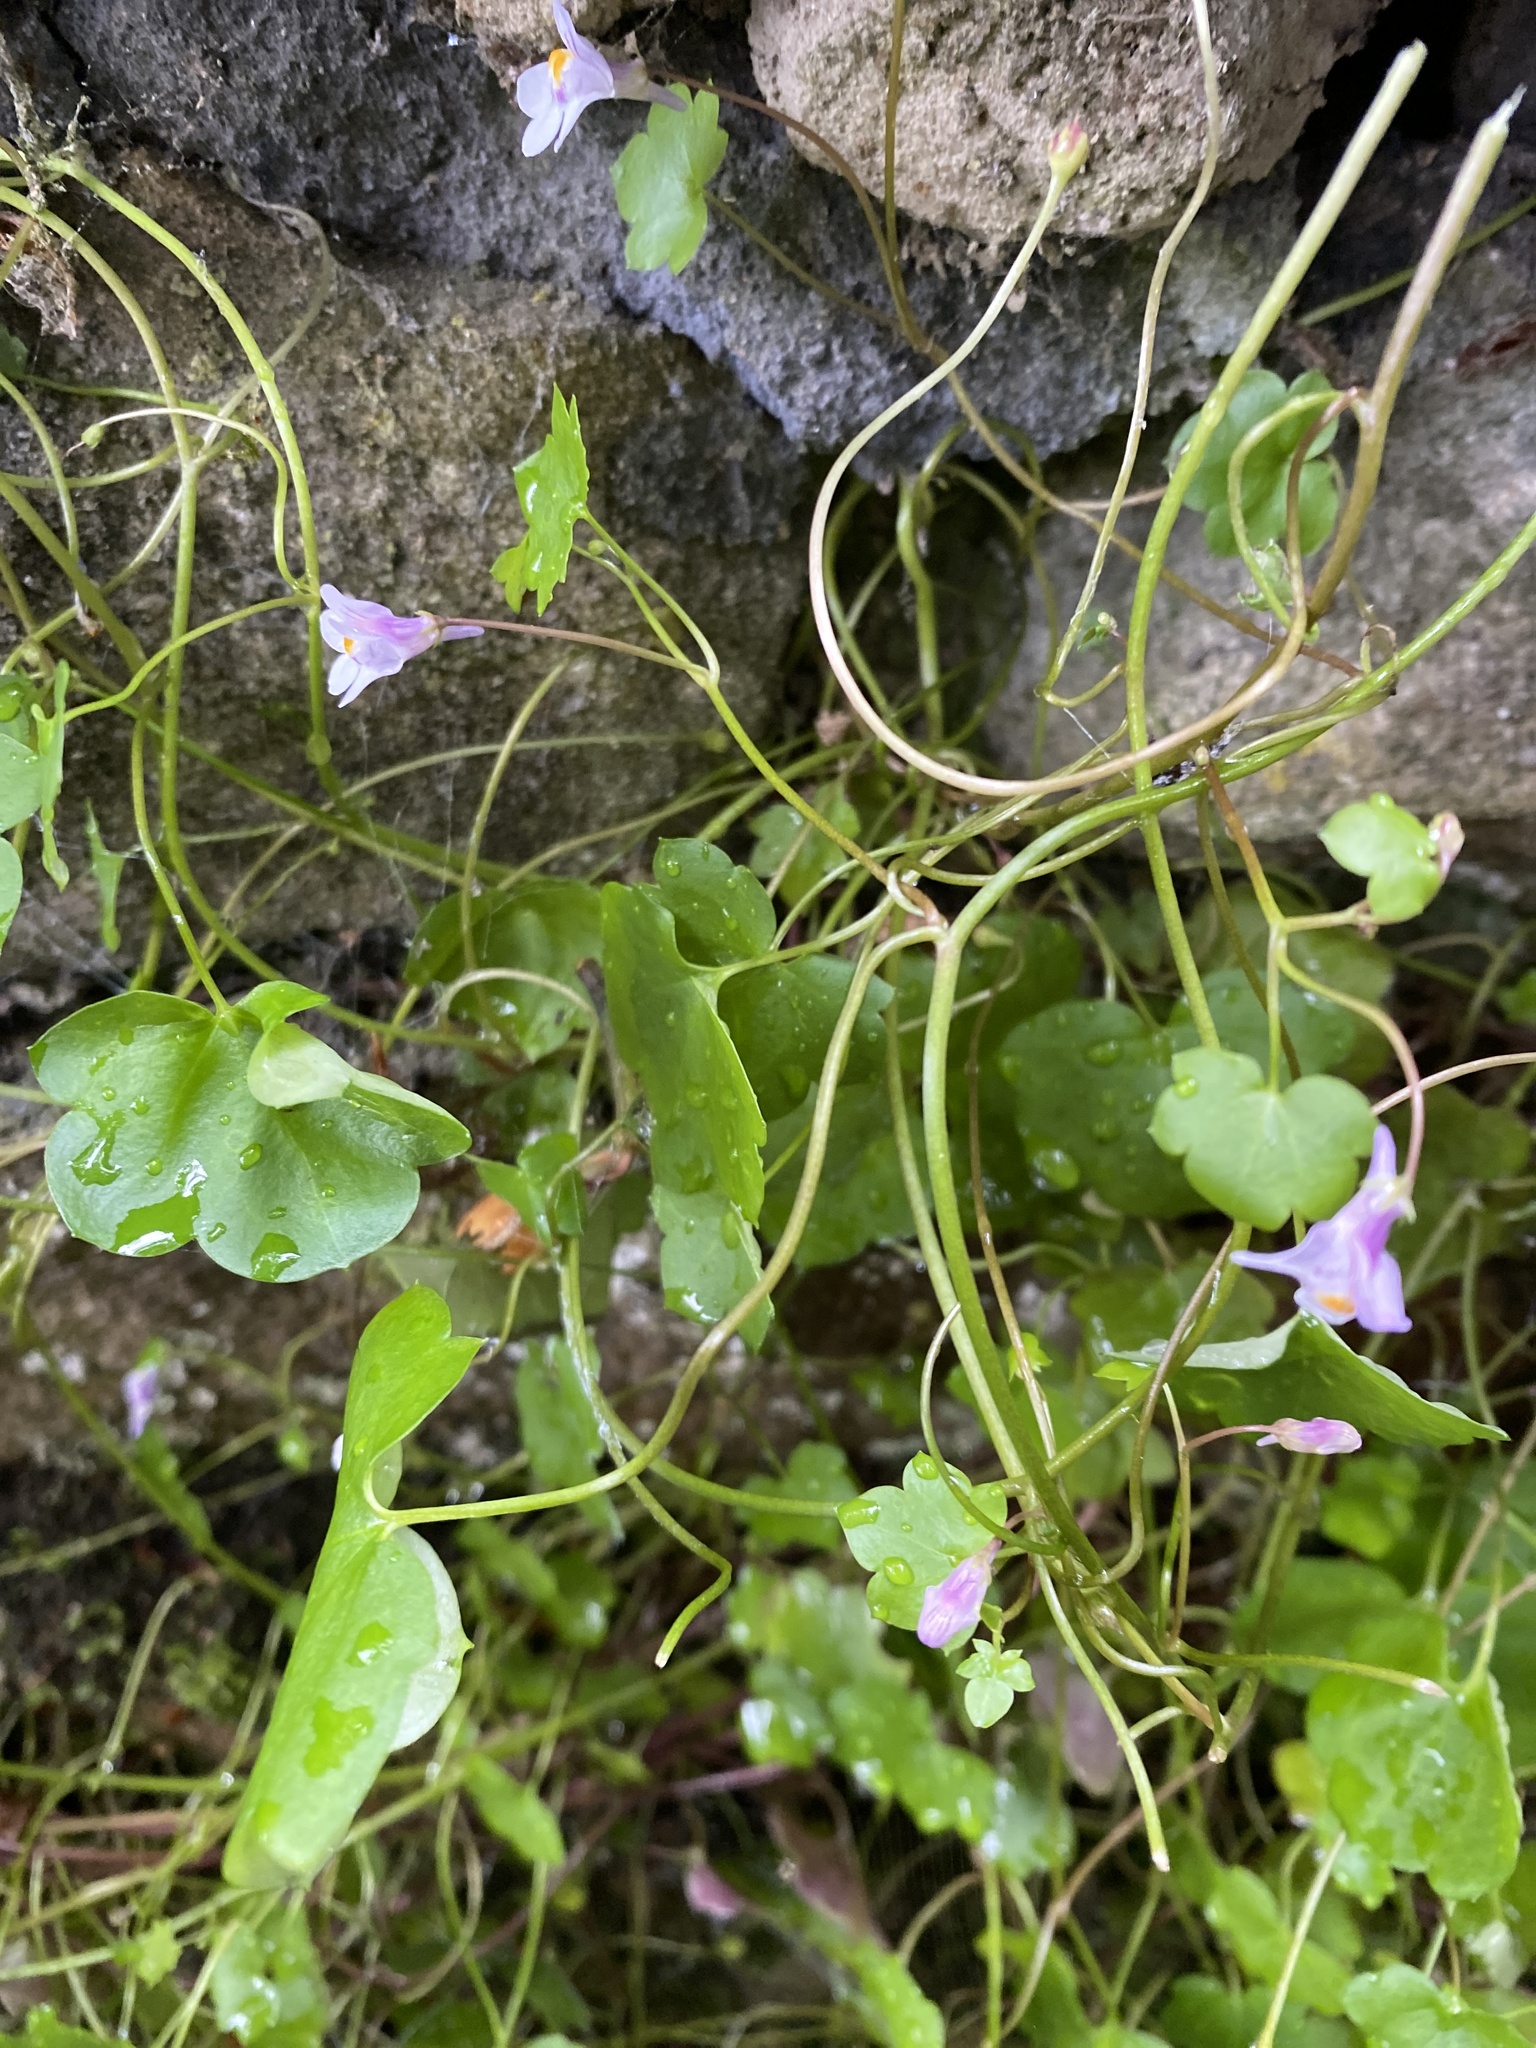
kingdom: Plantae
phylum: Tracheophyta
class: Magnoliopsida
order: Lamiales
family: Plantaginaceae
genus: Cymbalaria
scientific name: Cymbalaria muralis
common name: Ivy-leaved toadflax
